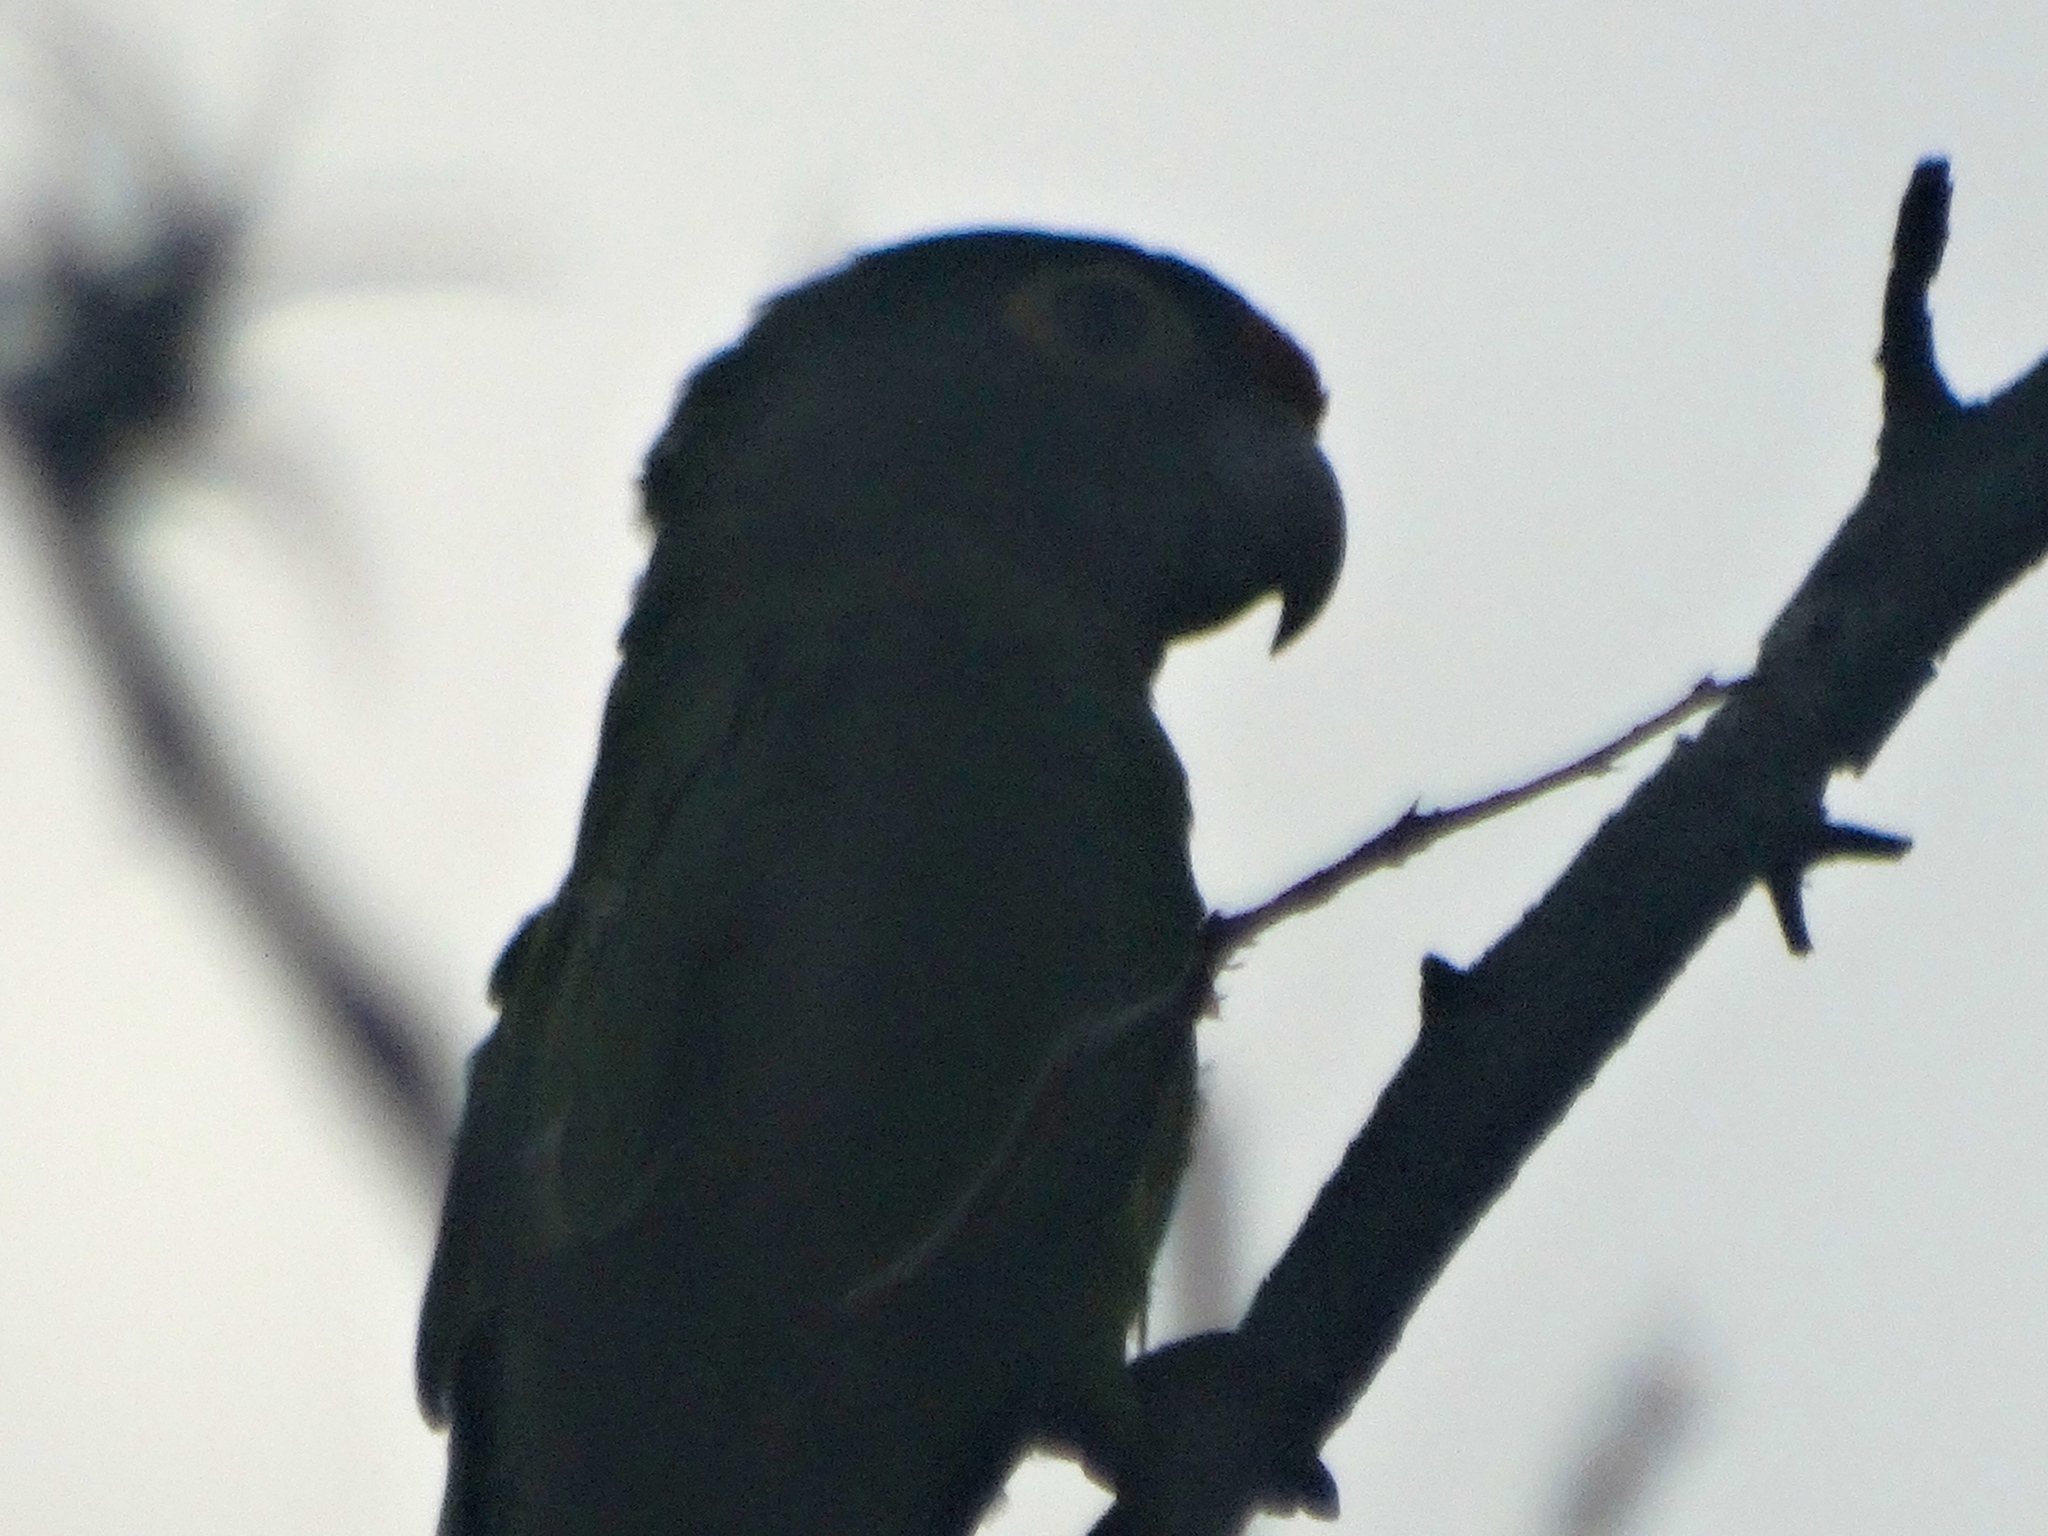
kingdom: Animalia
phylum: Chordata
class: Aves
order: Psittaciformes
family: Psittacidae
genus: Aratinga
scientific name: Aratinga canicularis
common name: Orange-fronted parakeet
